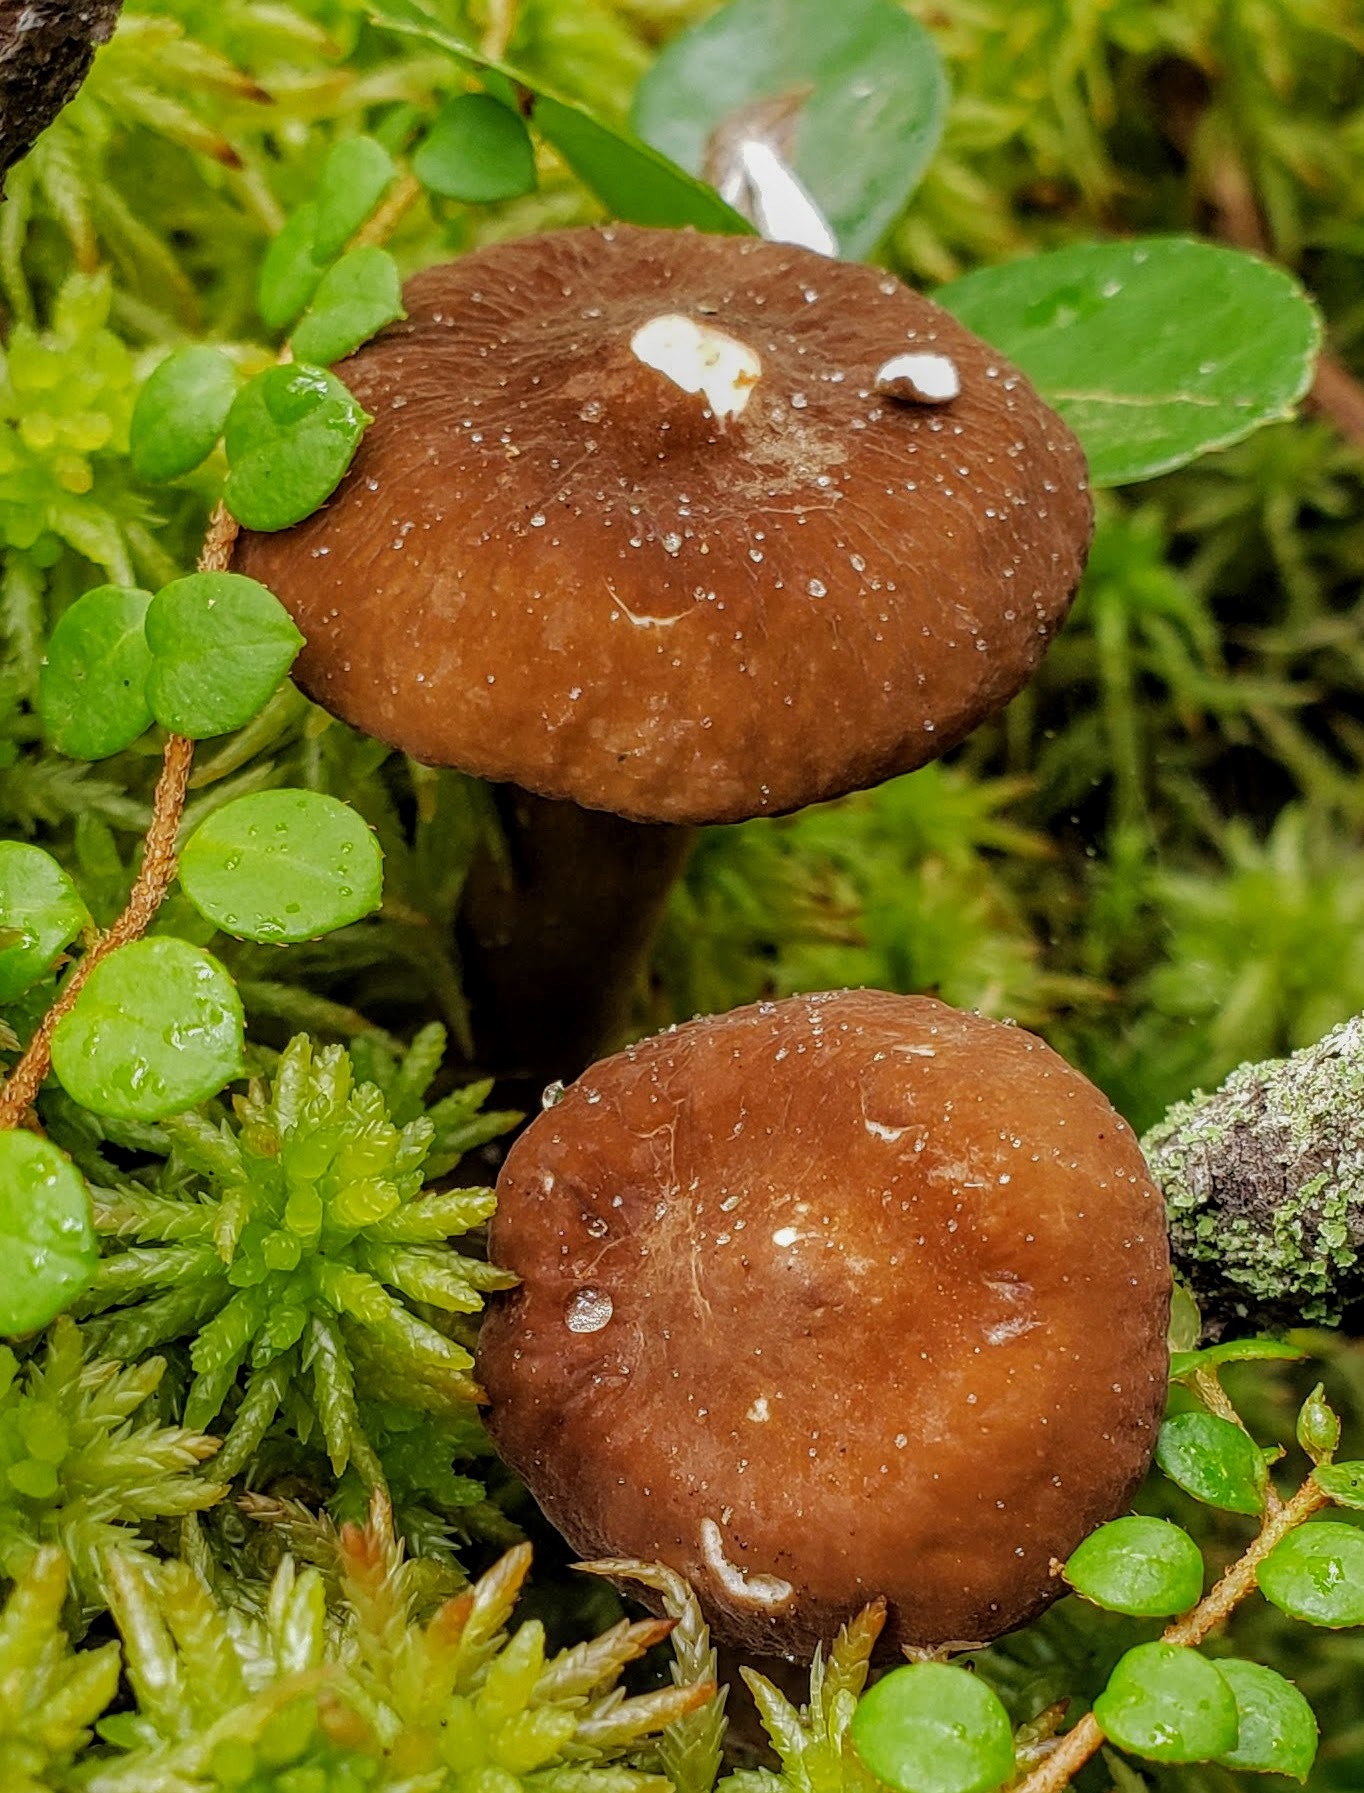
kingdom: Plantae
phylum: Tracheophyta
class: Magnoliopsida
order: Ericales
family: Ericaceae
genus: Gaultheria
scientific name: Gaultheria hispidula
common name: Cancer wintergreen
